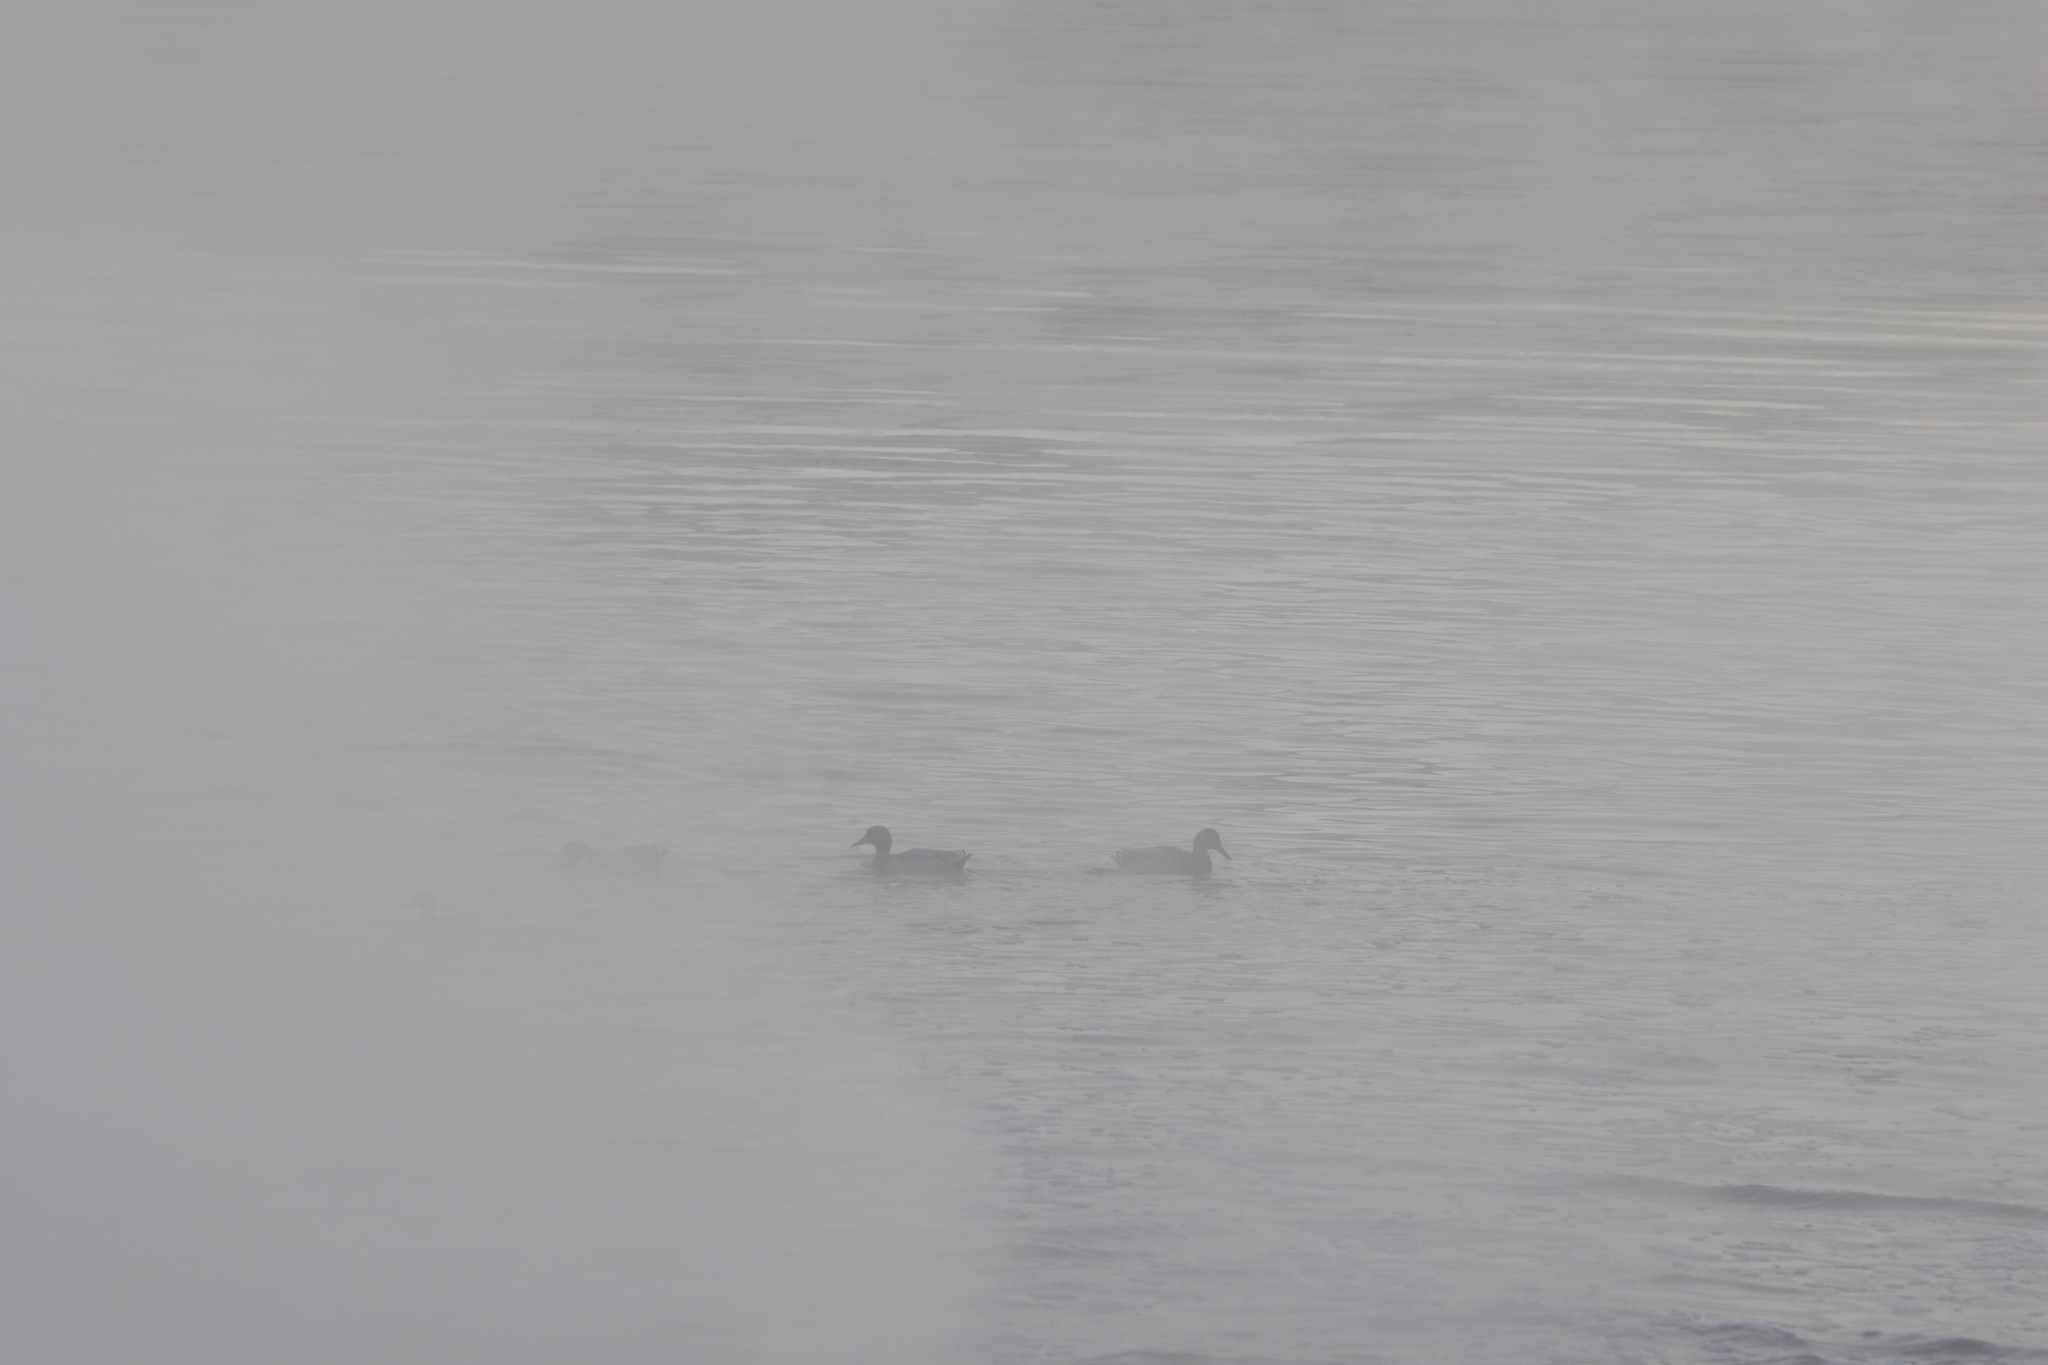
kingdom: Animalia
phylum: Chordata
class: Aves
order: Anseriformes
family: Anatidae
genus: Anas
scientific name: Anas platyrhynchos
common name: Mallard
